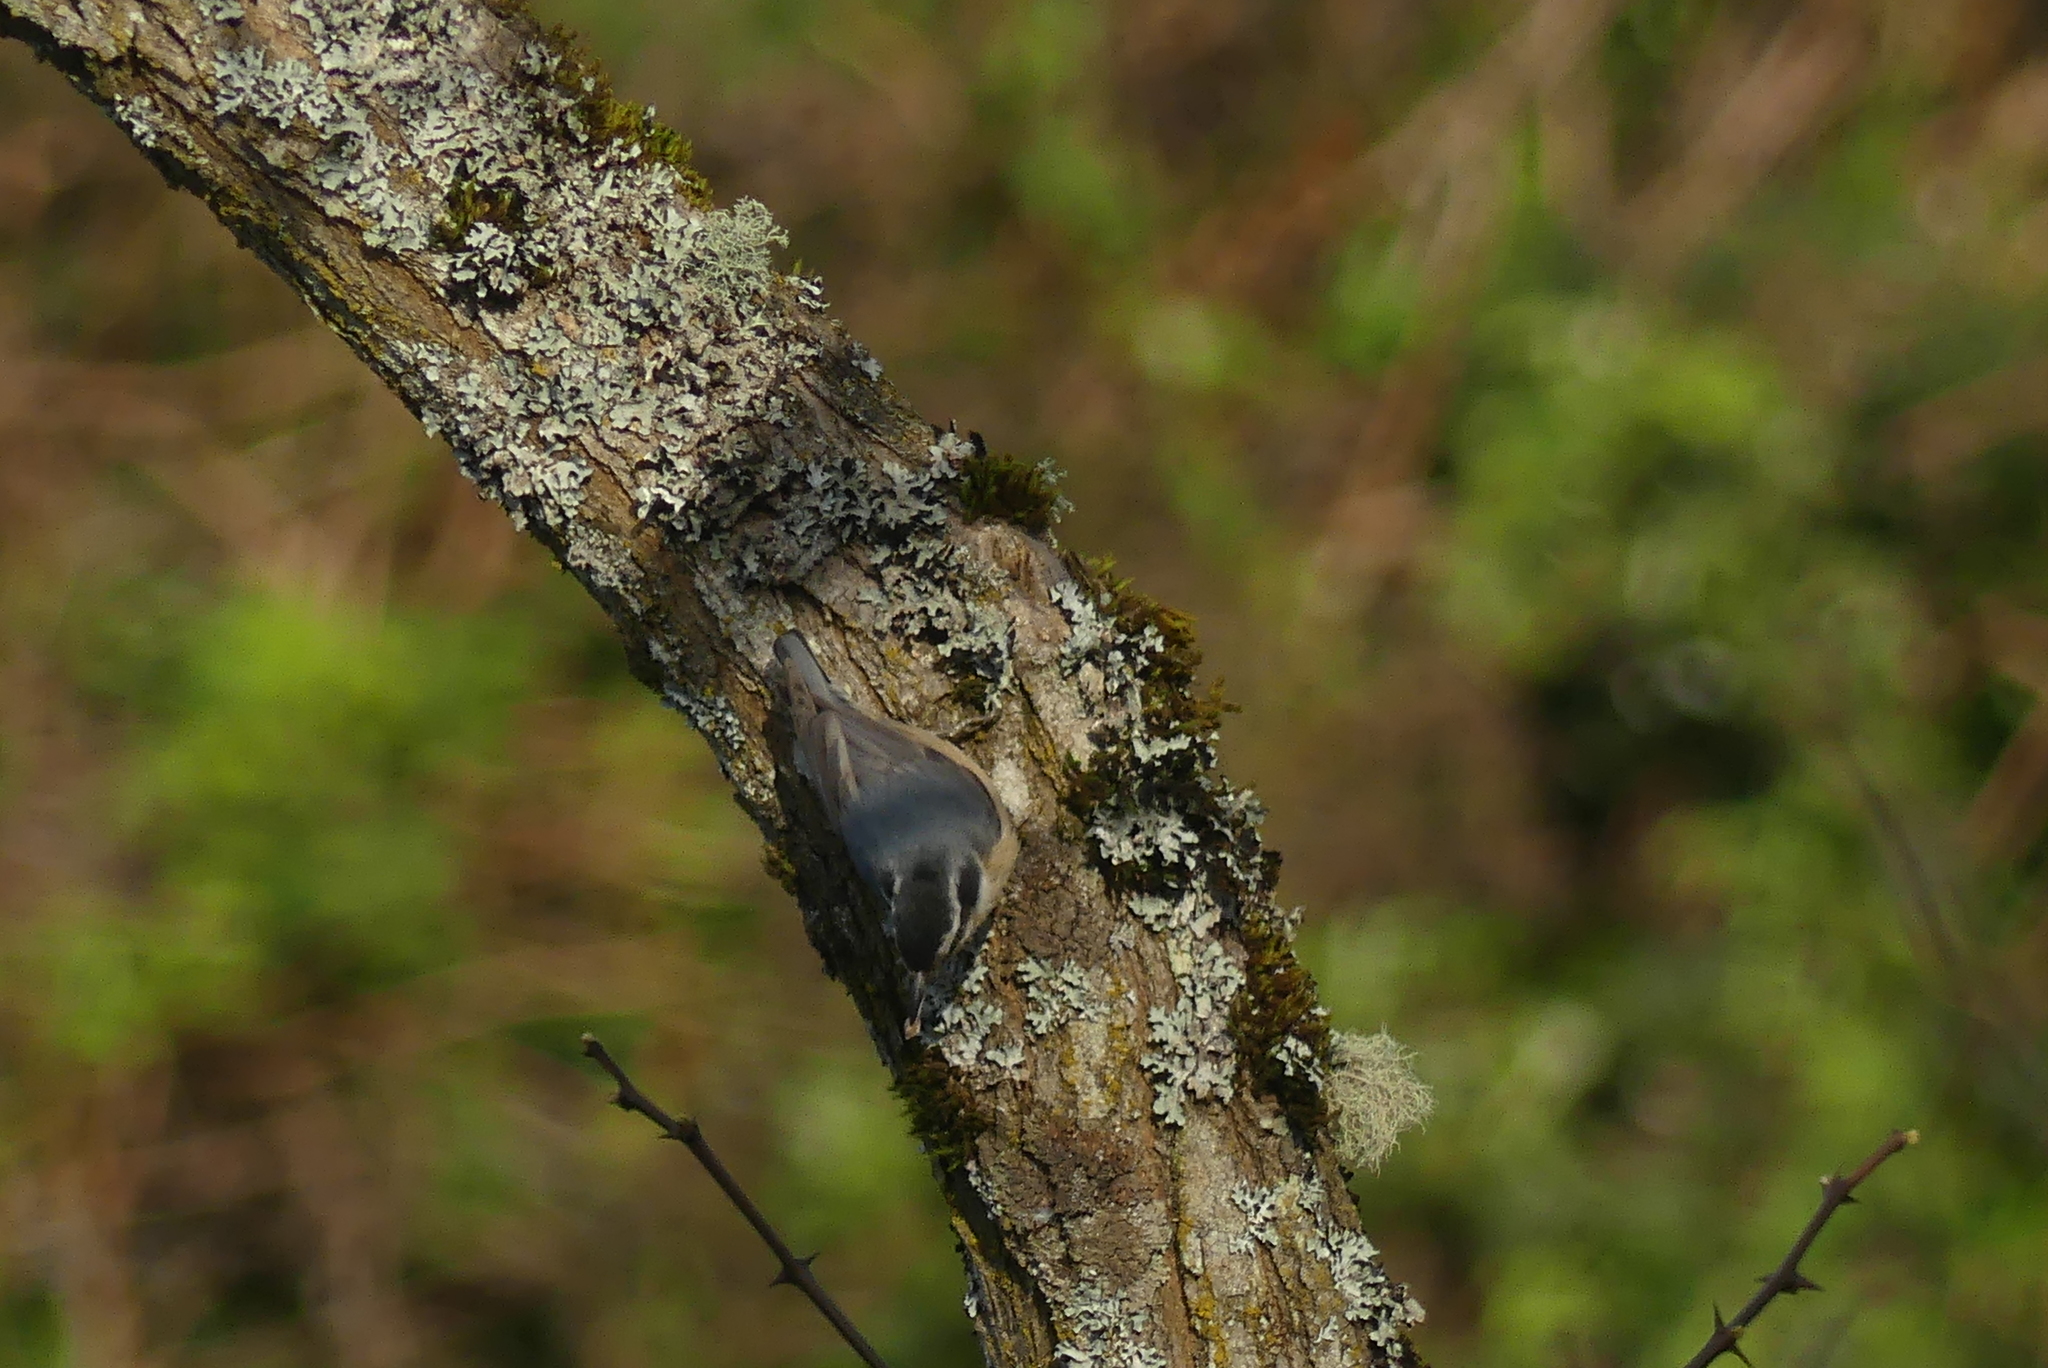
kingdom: Animalia
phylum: Chordata
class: Aves
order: Passeriformes
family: Sittidae
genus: Sitta
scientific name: Sitta canadensis
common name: Red-breasted nuthatch
